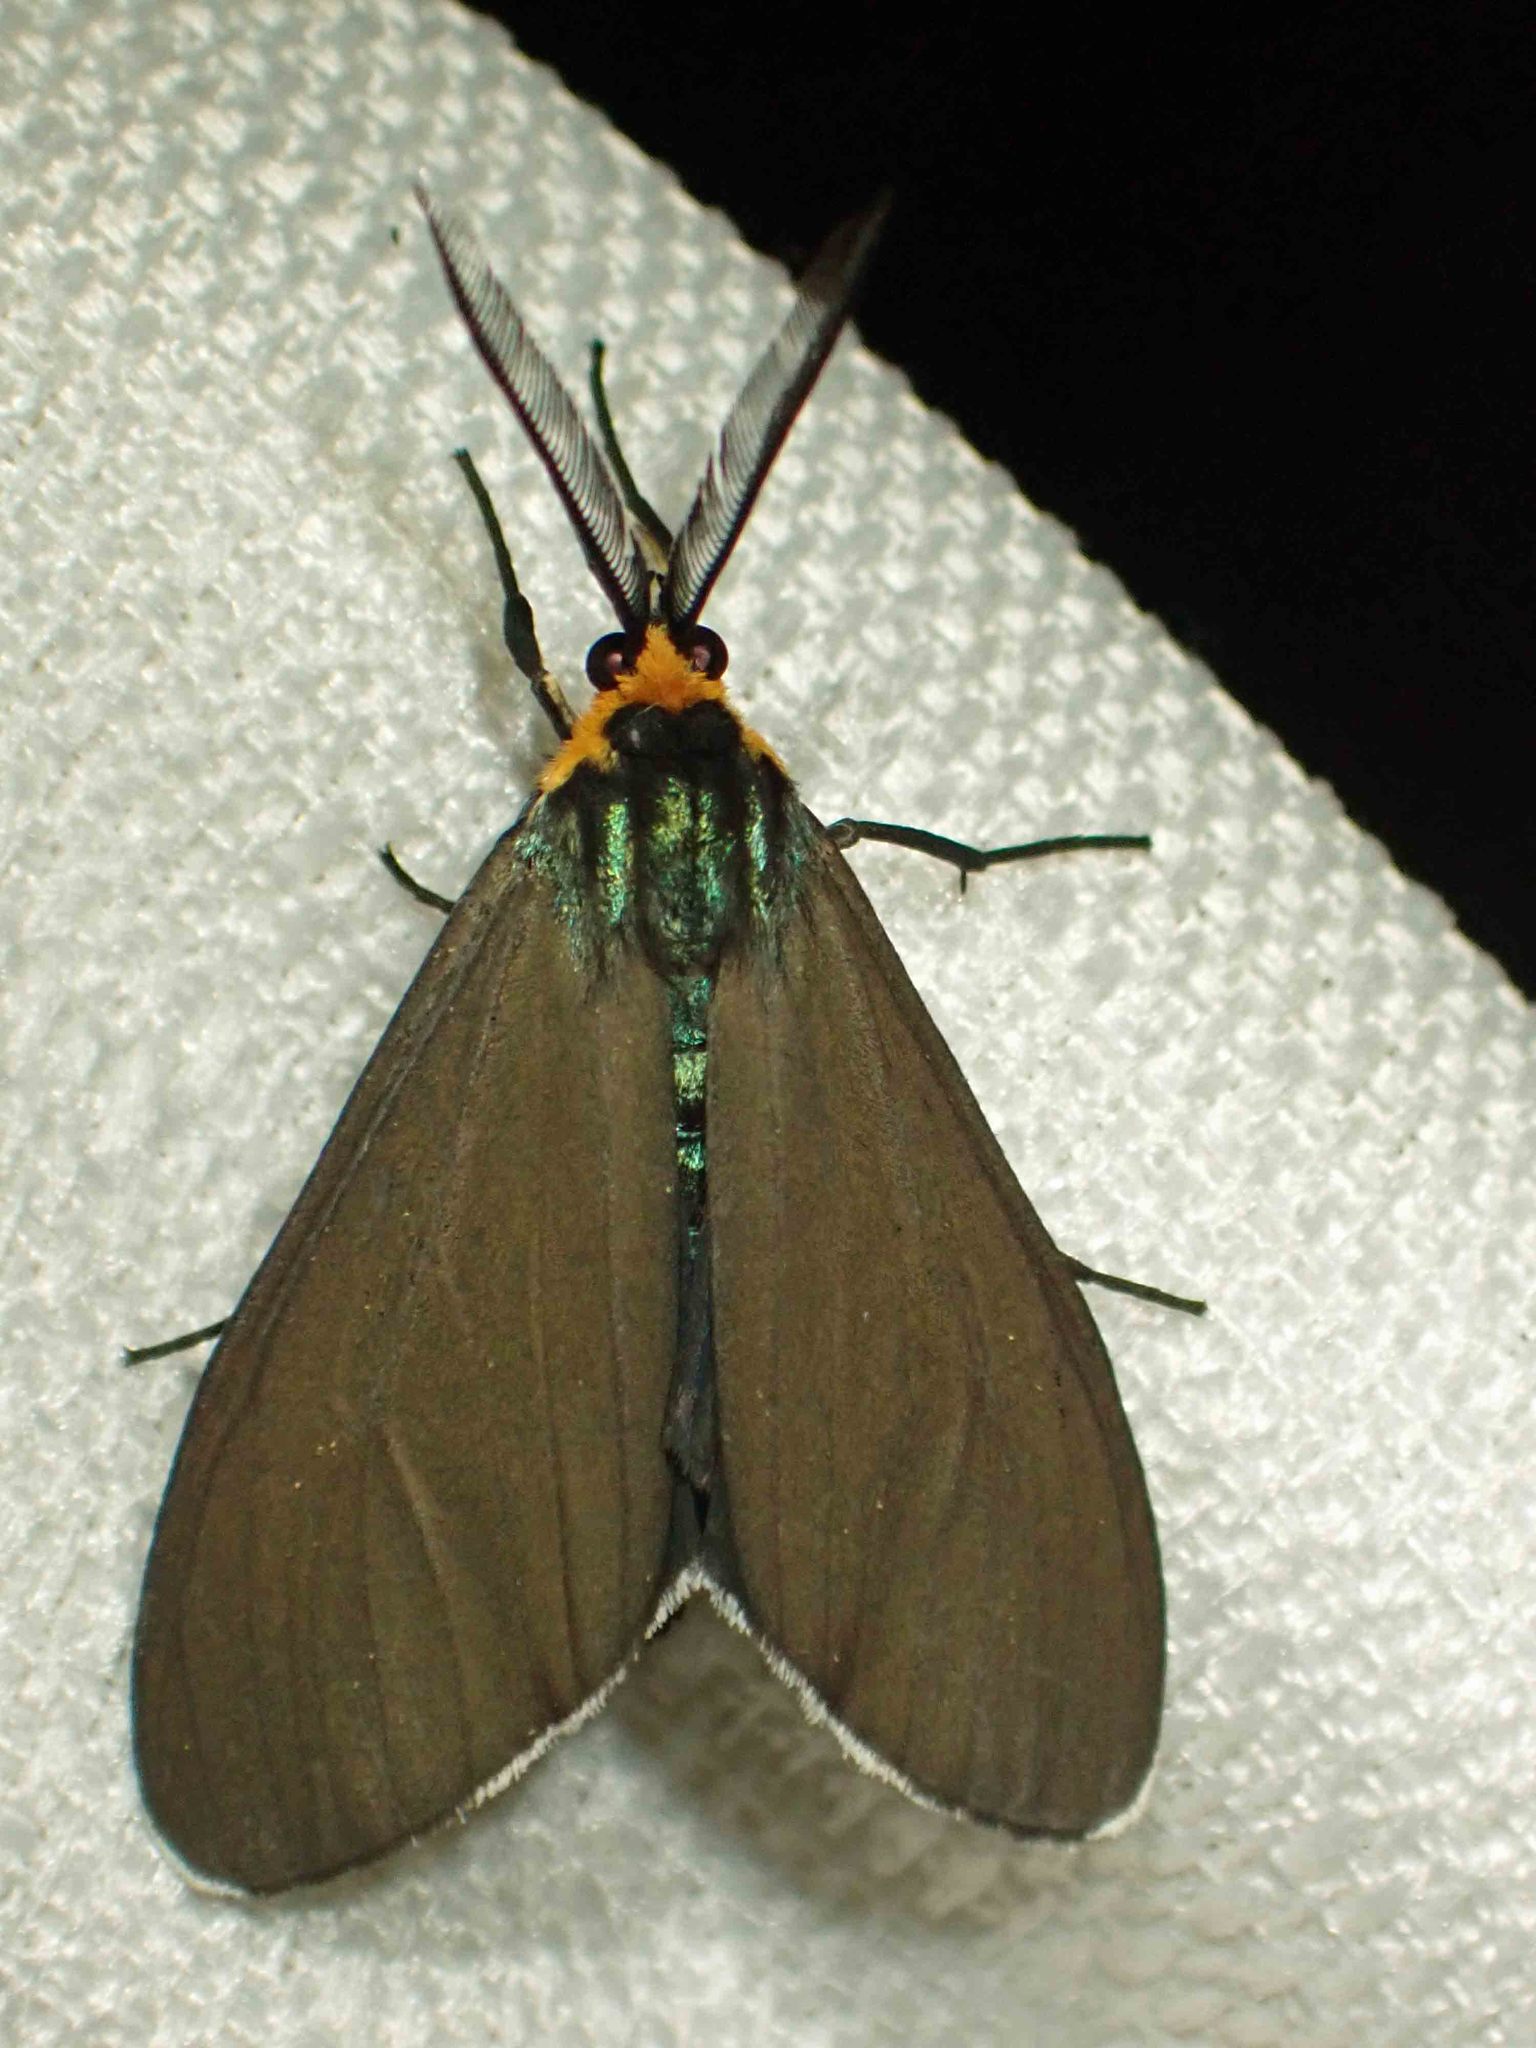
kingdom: Animalia
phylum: Arthropoda
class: Insecta
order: Lepidoptera
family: Erebidae
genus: Ctenucha
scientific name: Ctenucha virginica
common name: Virginia ctenucha moth
